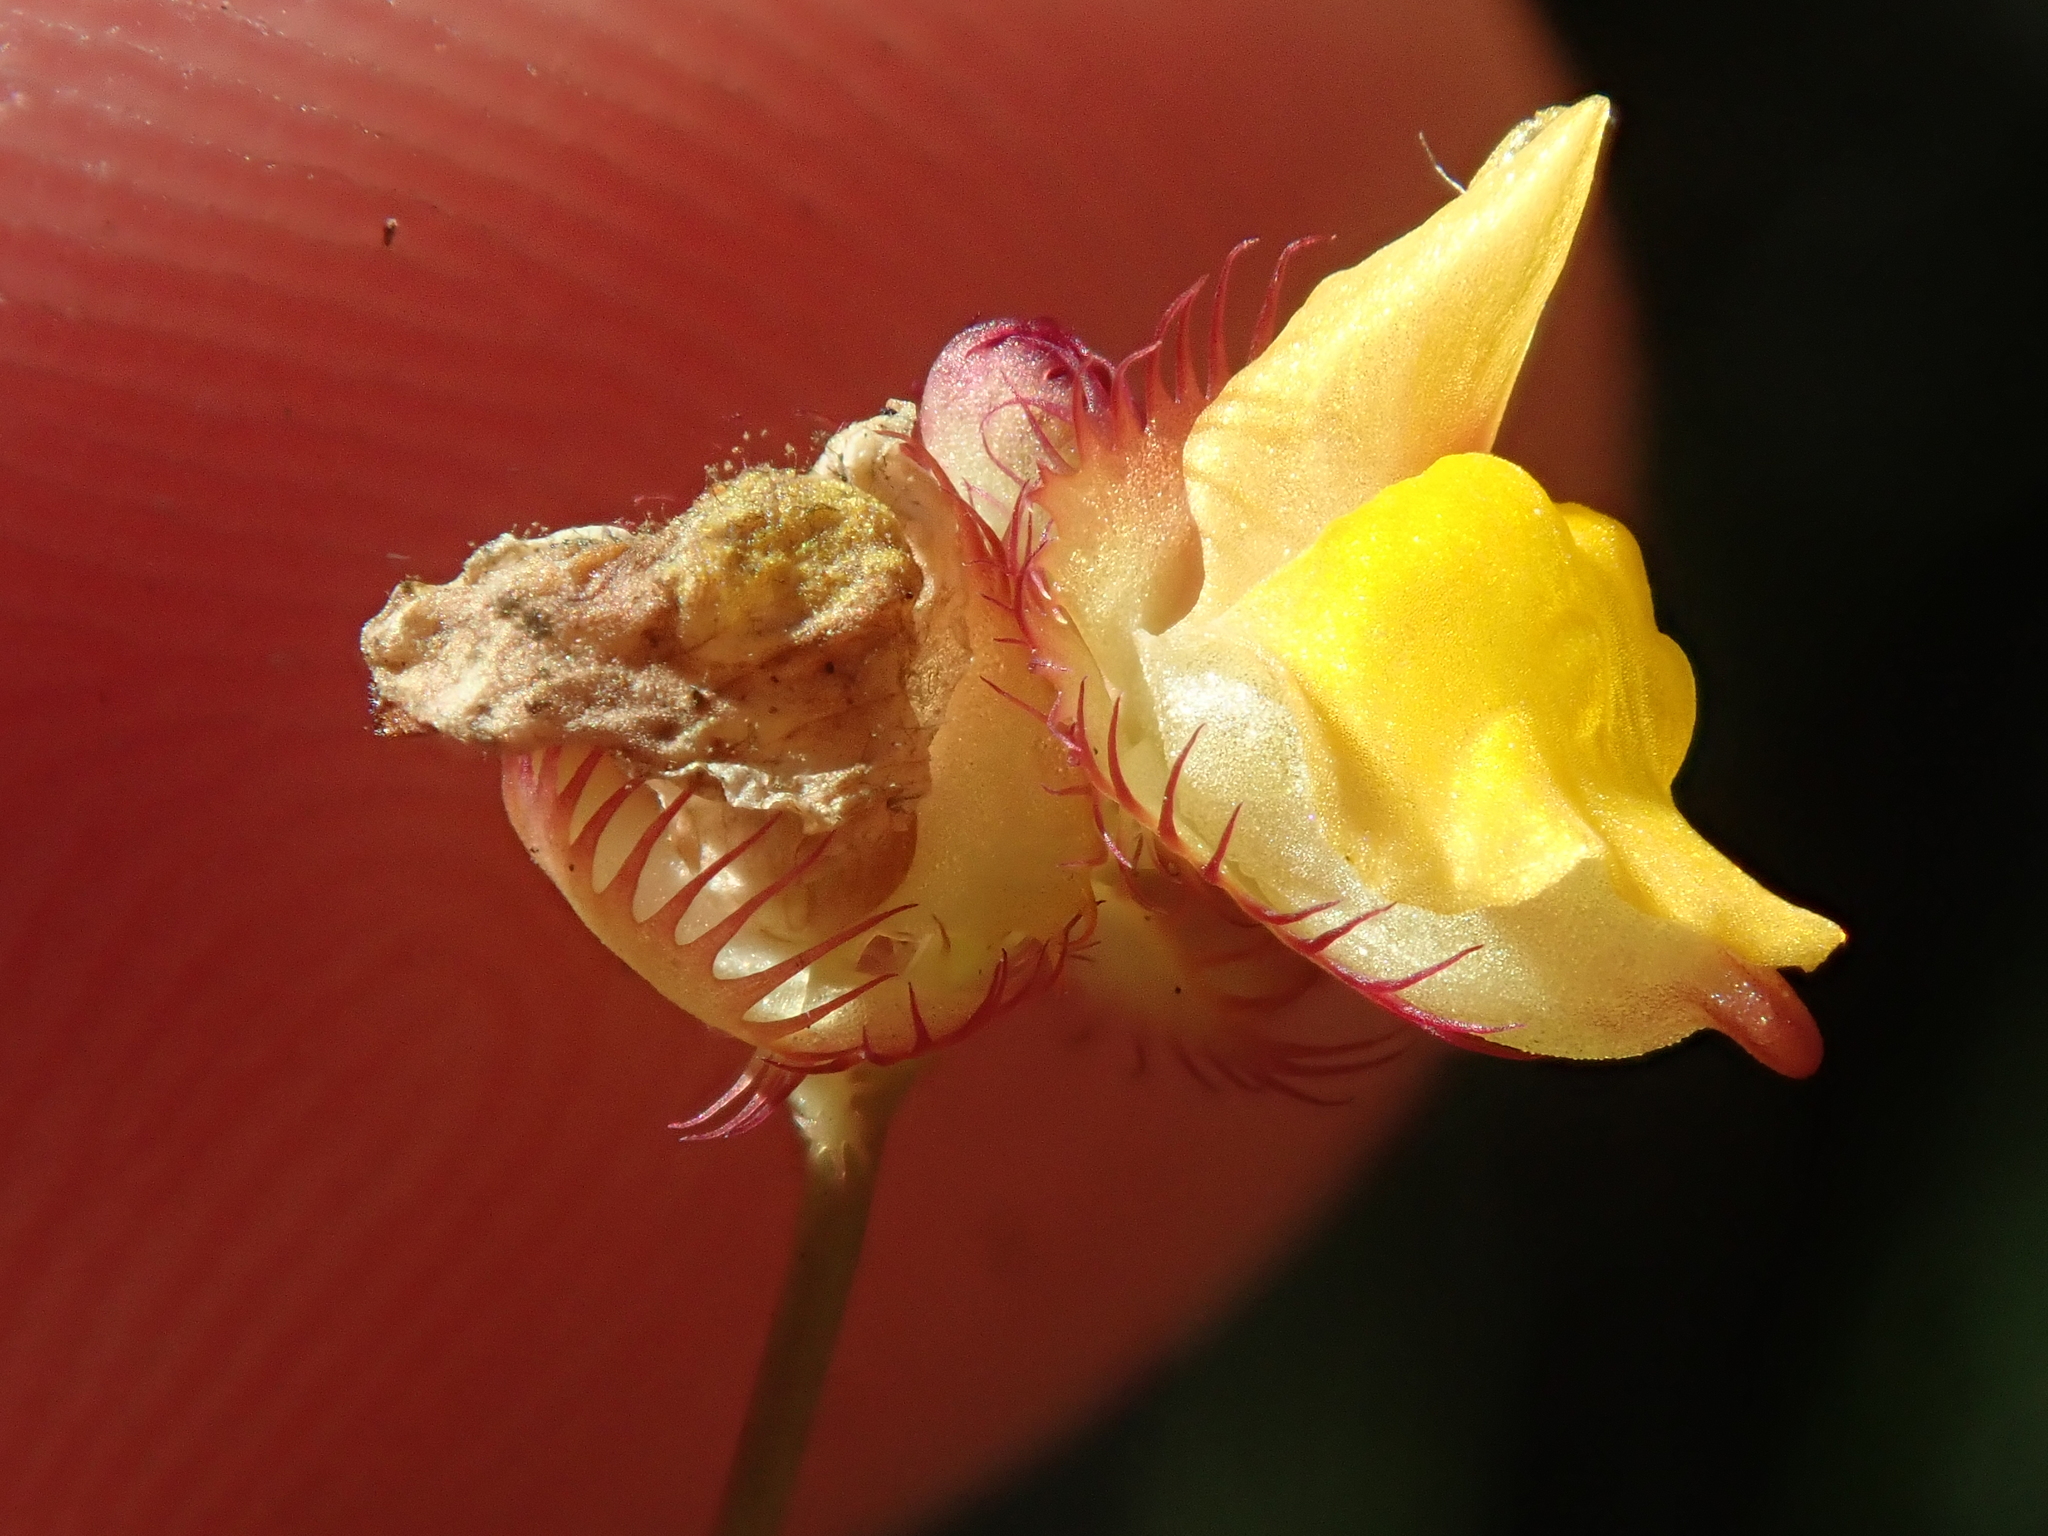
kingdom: Plantae
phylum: Tracheophyta
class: Magnoliopsida
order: Lamiales
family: Lentibulariaceae
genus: Utricularia
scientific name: Utricularia simulans
